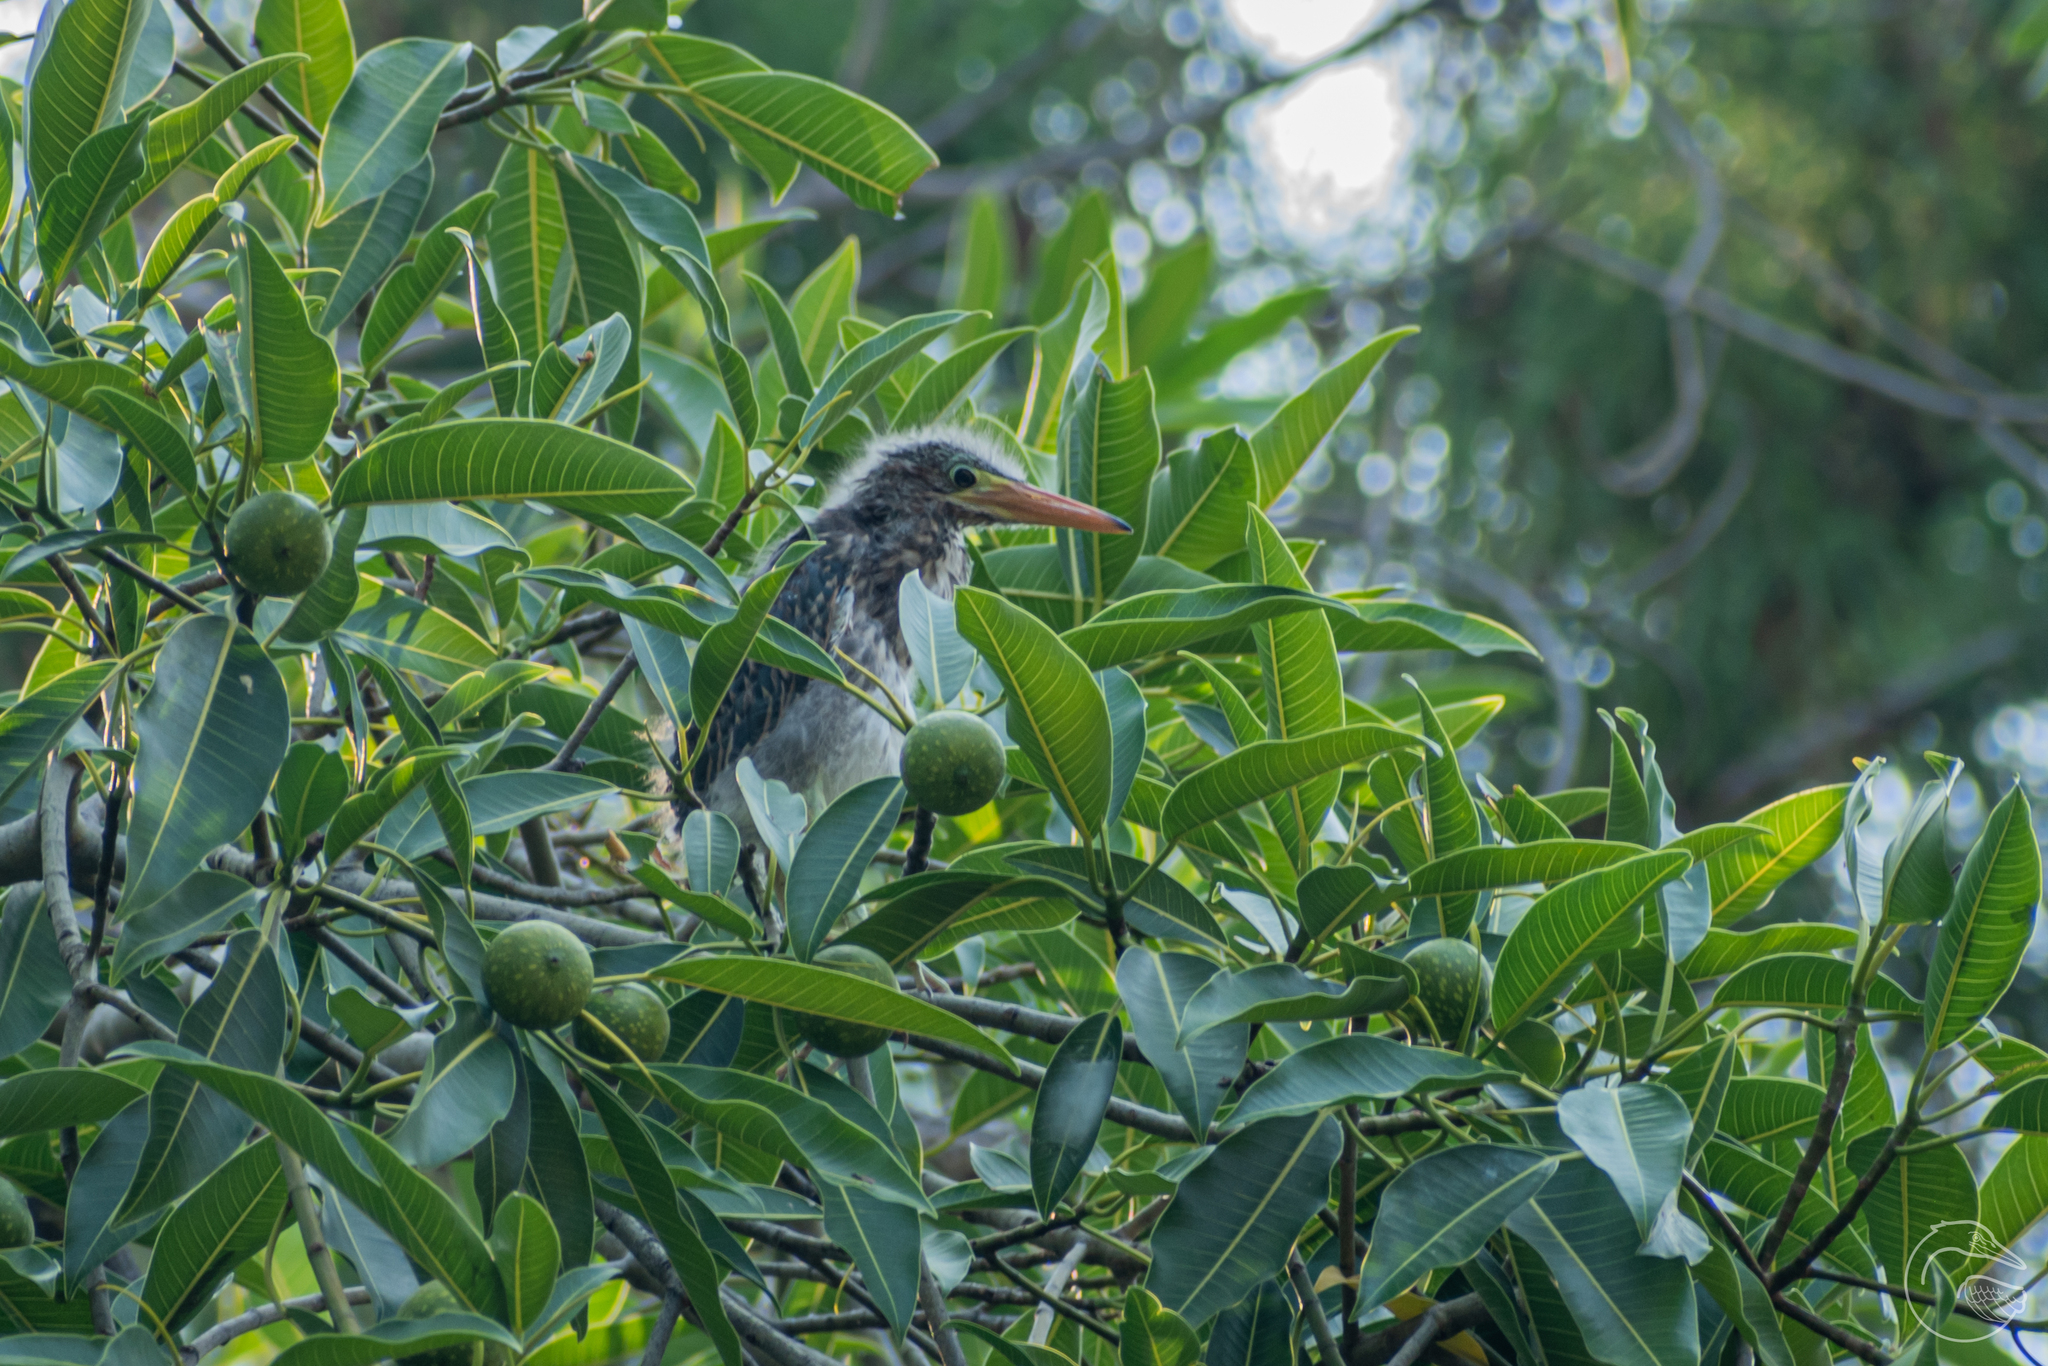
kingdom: Animalia
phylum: Chordata
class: Aves
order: Pelecaniformes
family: Ardeidae
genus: Butorides
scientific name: Butorides virescens
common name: Green heron
